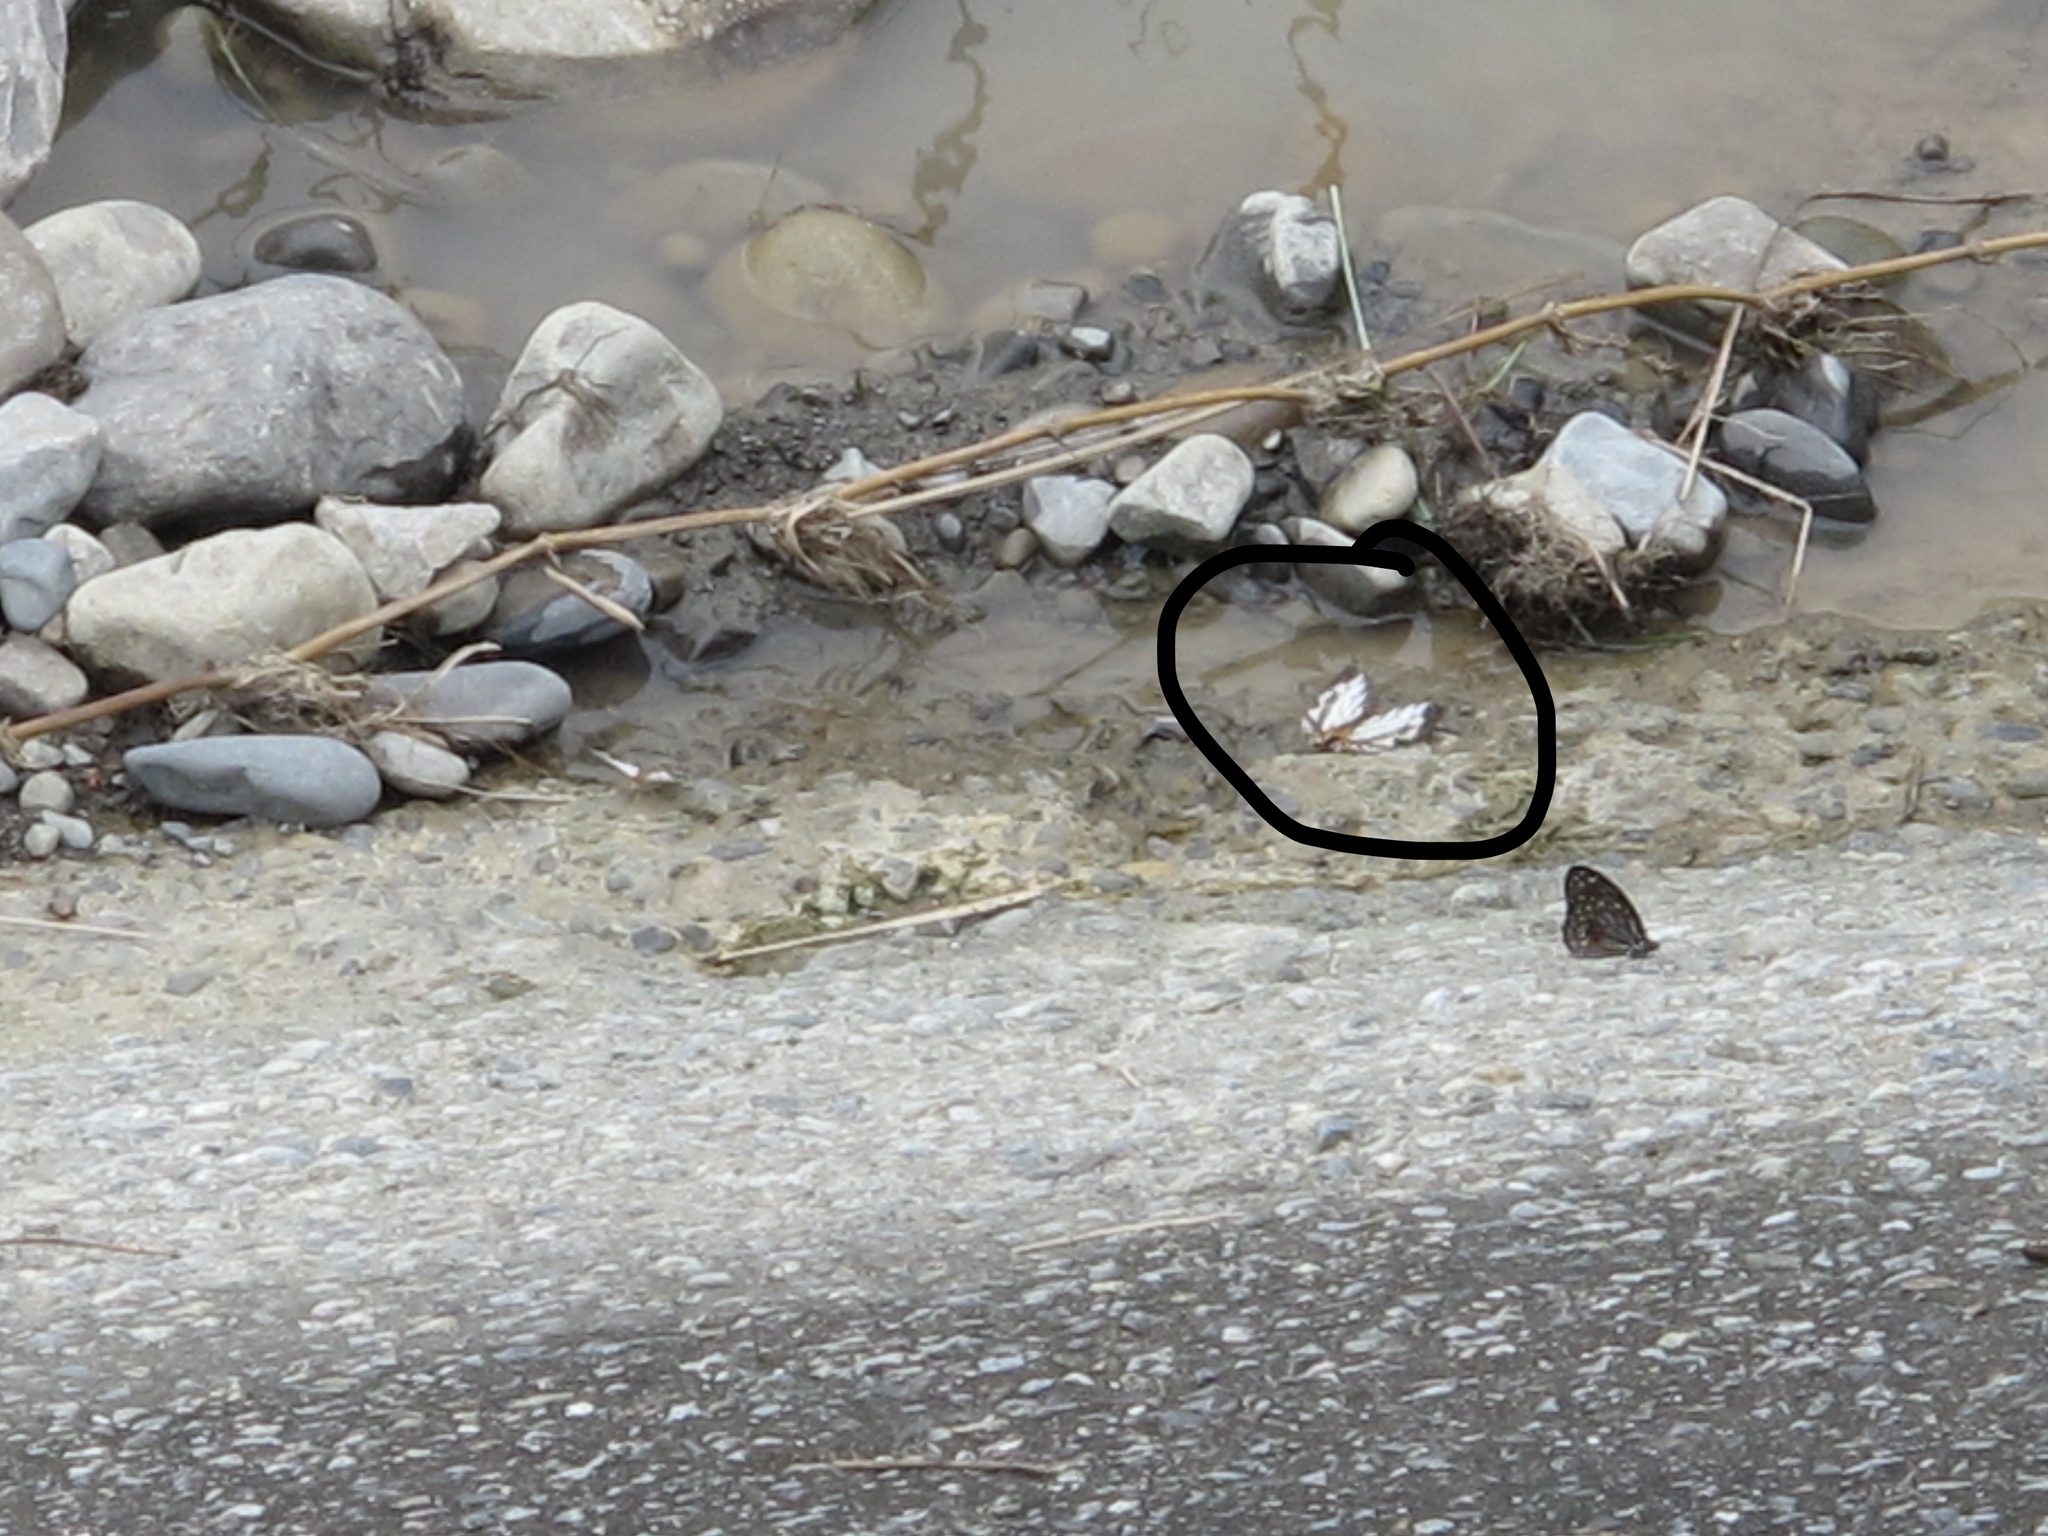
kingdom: Animalia
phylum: Arthropoda
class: Insecta
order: Lepidoptera
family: Nymphalidae
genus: Cyrestis
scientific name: Cyrestis thyodamas
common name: Common mapwing
